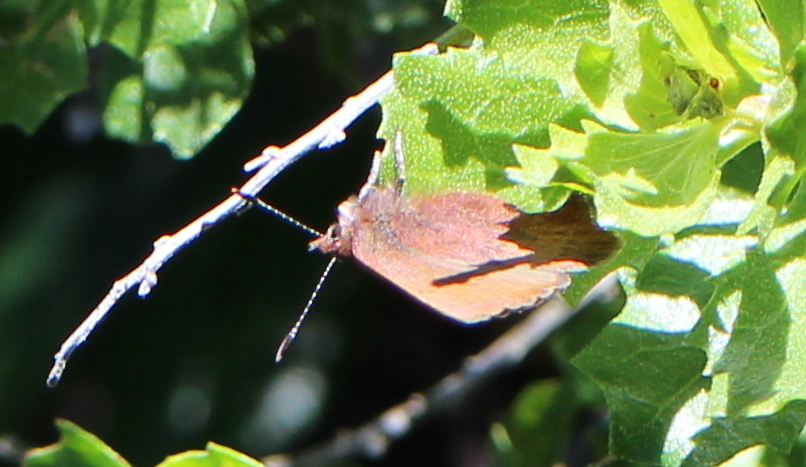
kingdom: Animalia
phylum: Arthropoda
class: Insecta
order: Lepidoptera
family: Lycaenidae
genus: Incisalia
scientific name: Incisalia irioides
